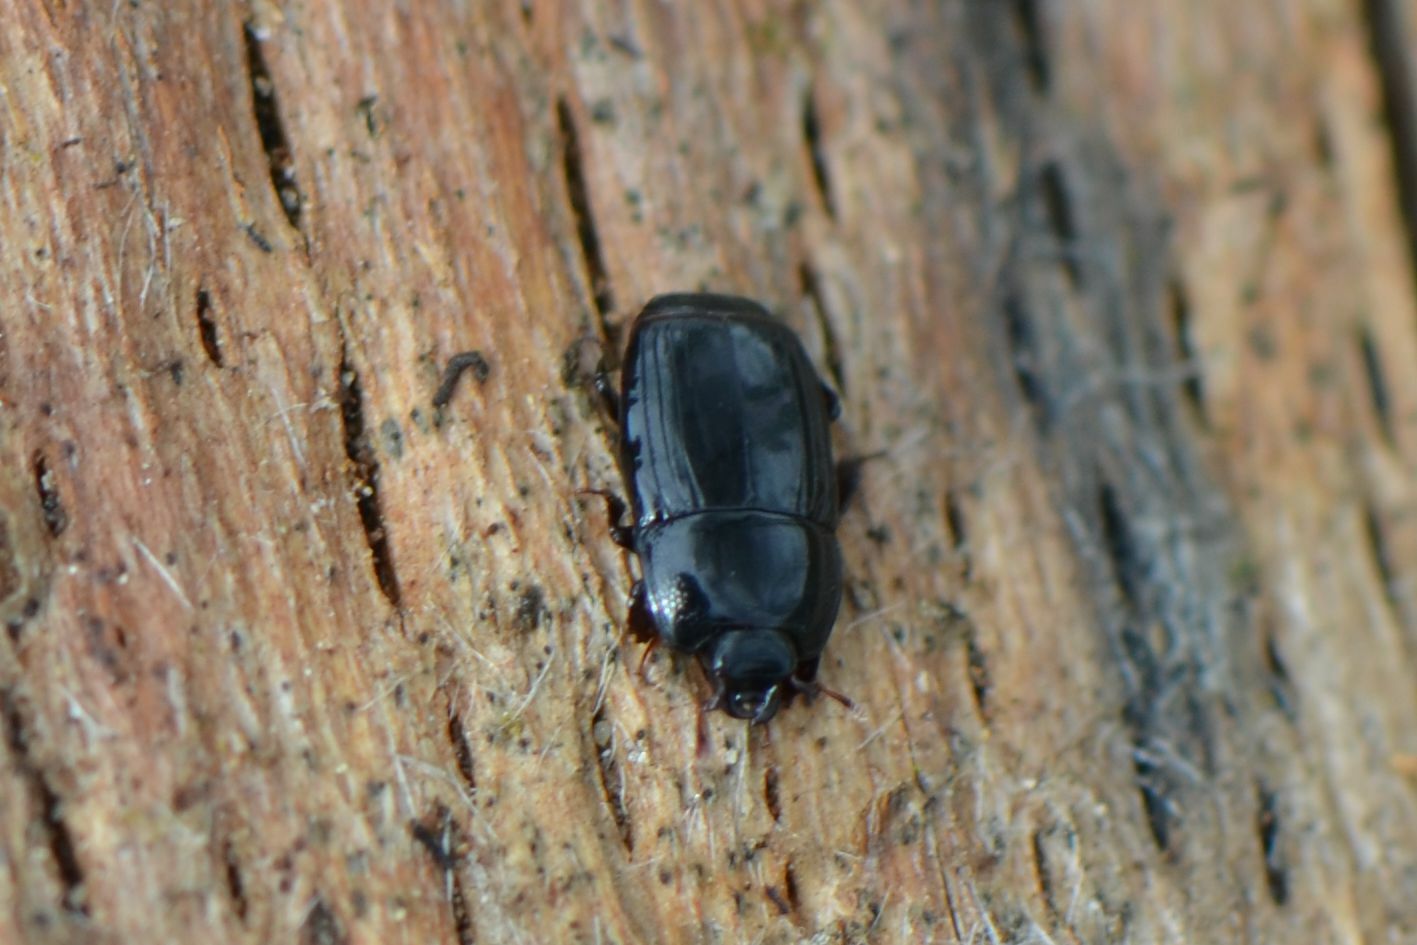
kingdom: Animalia
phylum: Arthropoda
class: Insecta
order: Coleoptera
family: Histeridae
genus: Platysoma
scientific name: Platysoma compressum
